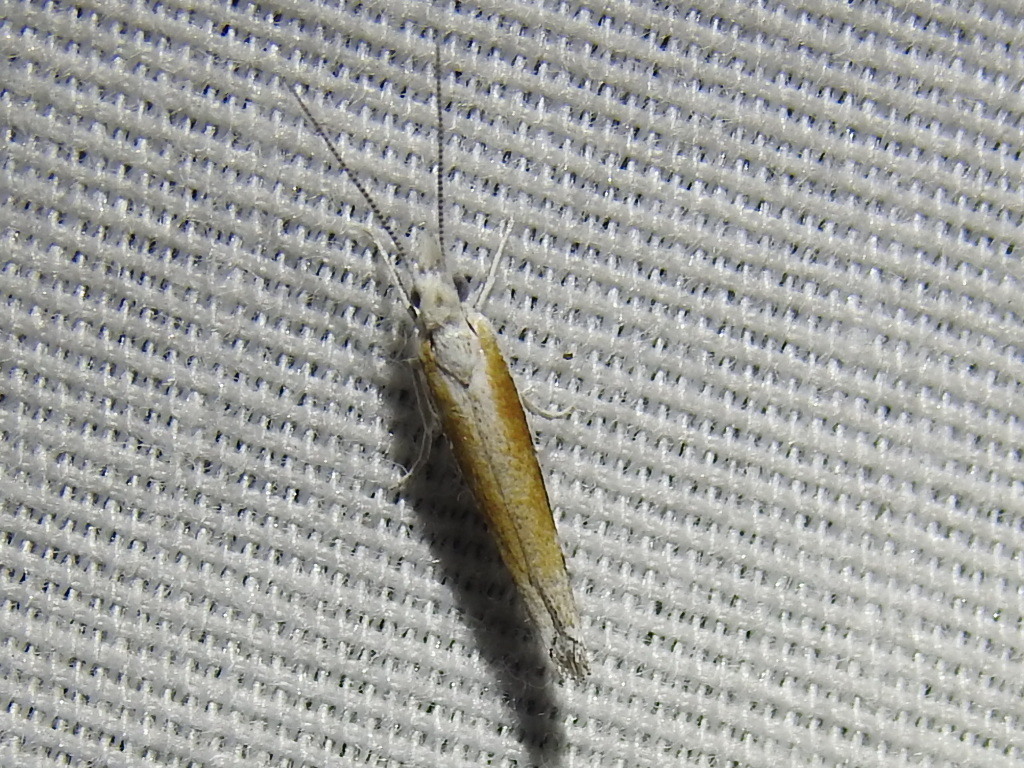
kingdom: Animalia
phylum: Arthropoda
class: Insecta
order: Lepidoptera
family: Ypsolophidae
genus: Ypsolopha
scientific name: Ypsolopha gerdanella
